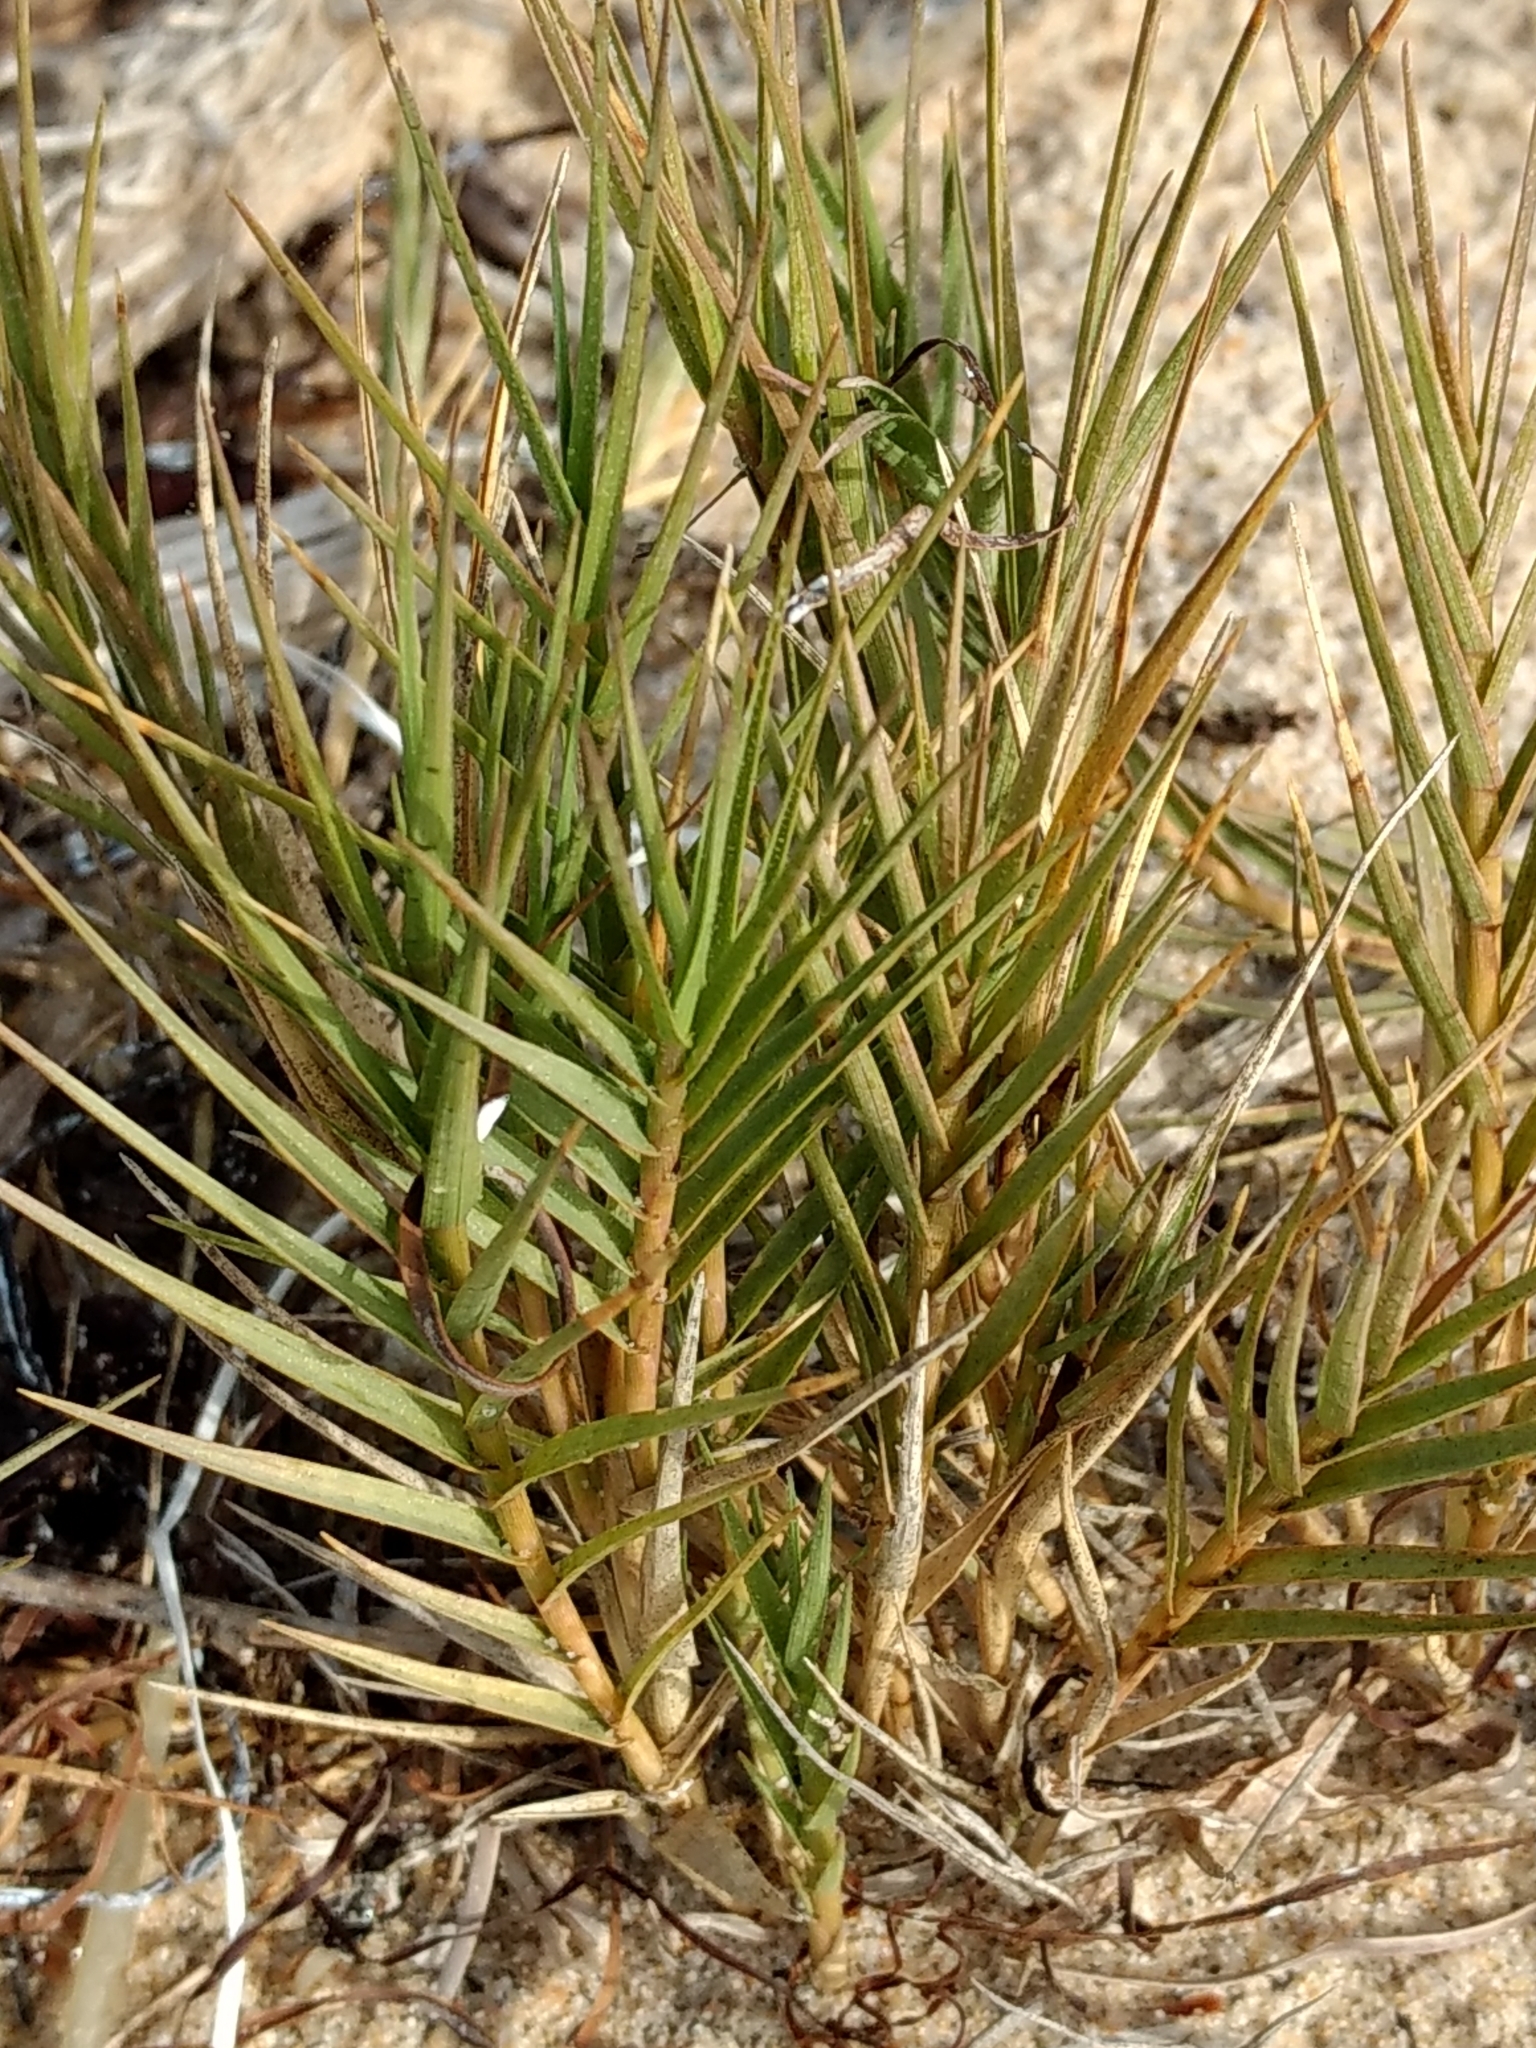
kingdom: Plantae
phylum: Tracheophyta
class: Liliopsida
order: Poales
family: Poaceae
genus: Distichlis
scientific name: Distichlis spicata
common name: Saltgrass
